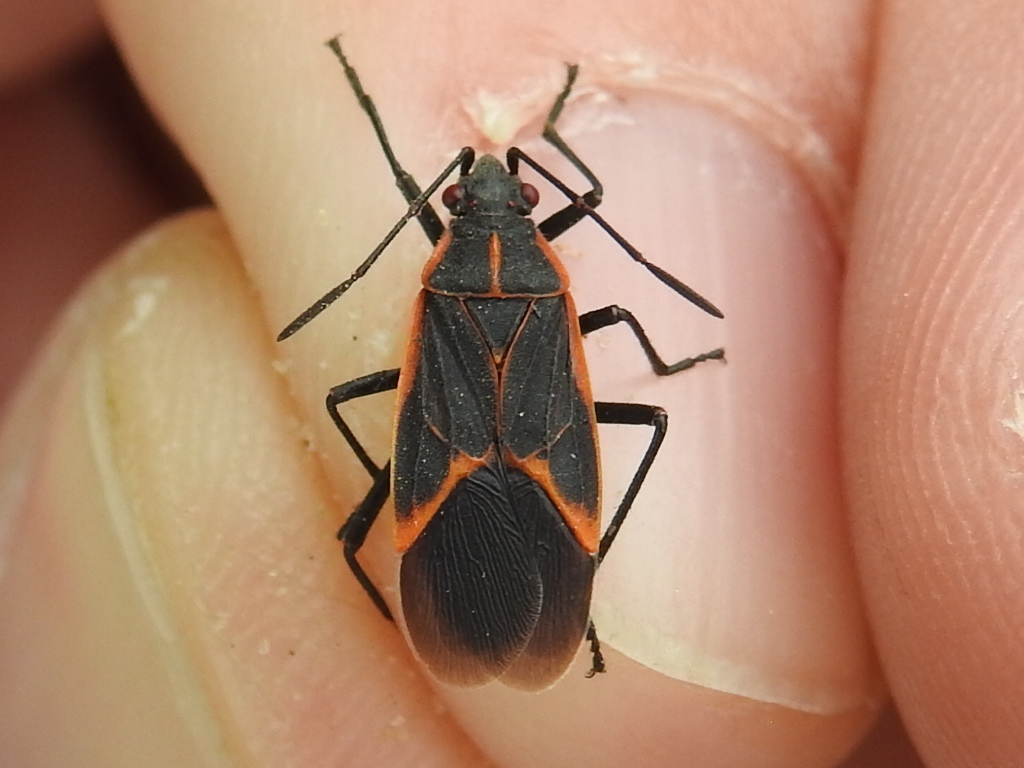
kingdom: Animalia
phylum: Arthropoda
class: Insecta
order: Hemiptera
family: Rhopalidae
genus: Boisea
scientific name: Boisea trivittata
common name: Boxelder bug
